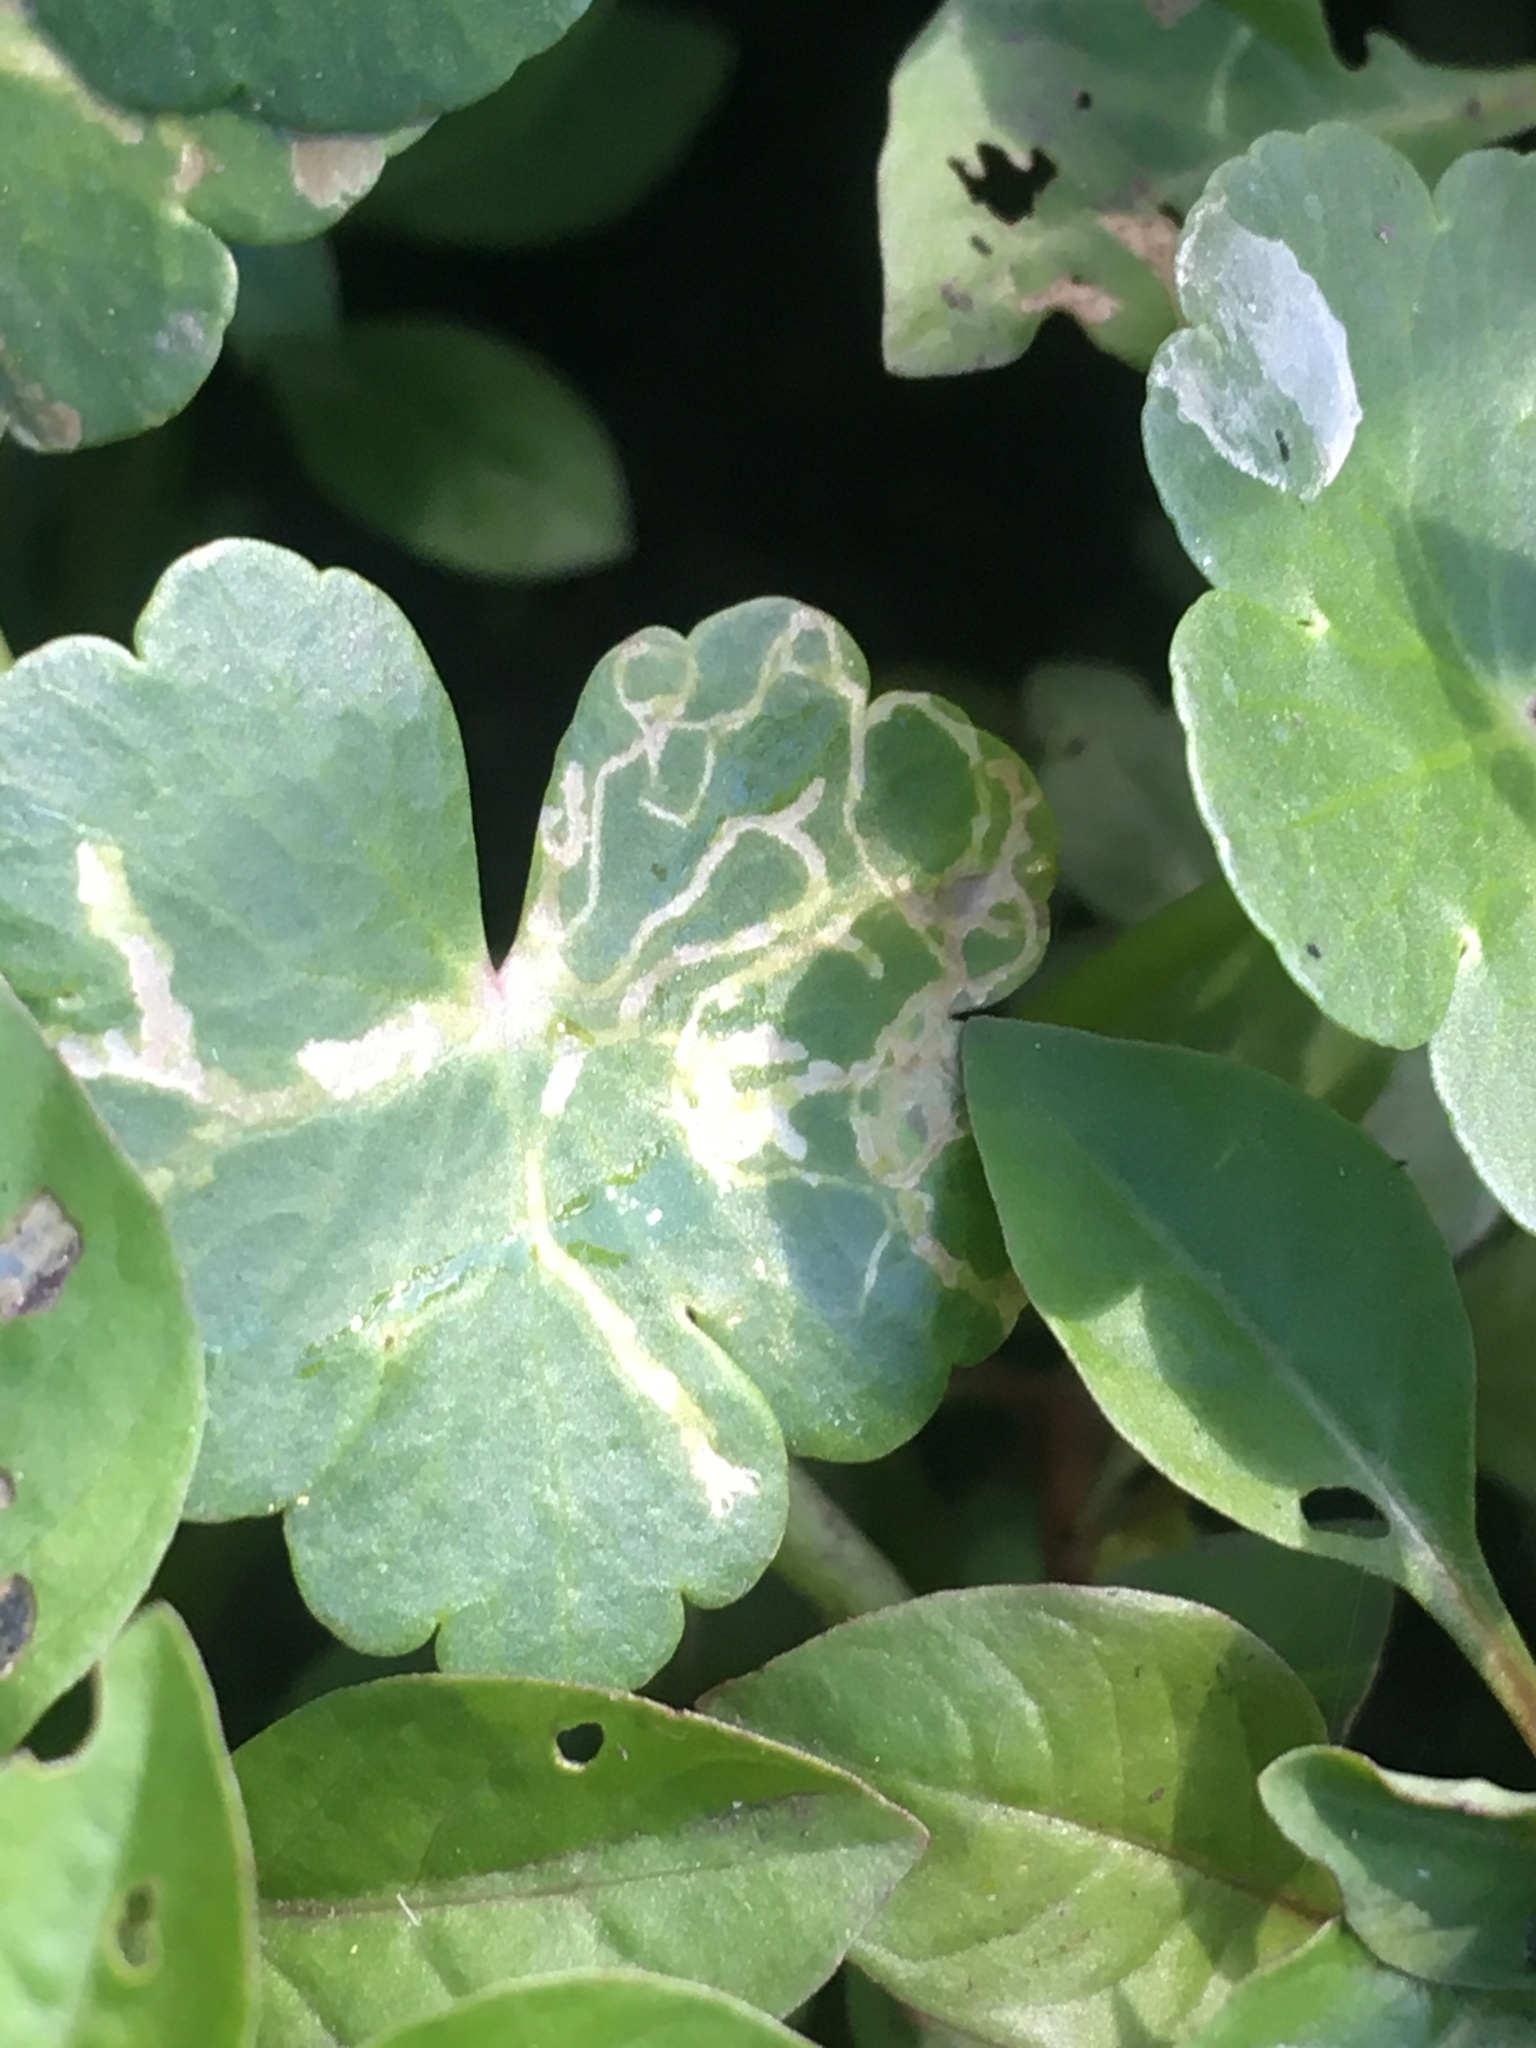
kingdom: Plantae
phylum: Tracheophyta
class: Magnoliopsida
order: Apiales
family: Araliaceae
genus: Hydrocotyle
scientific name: Hydrocotyle ranunculoides
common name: Floating pennywort
